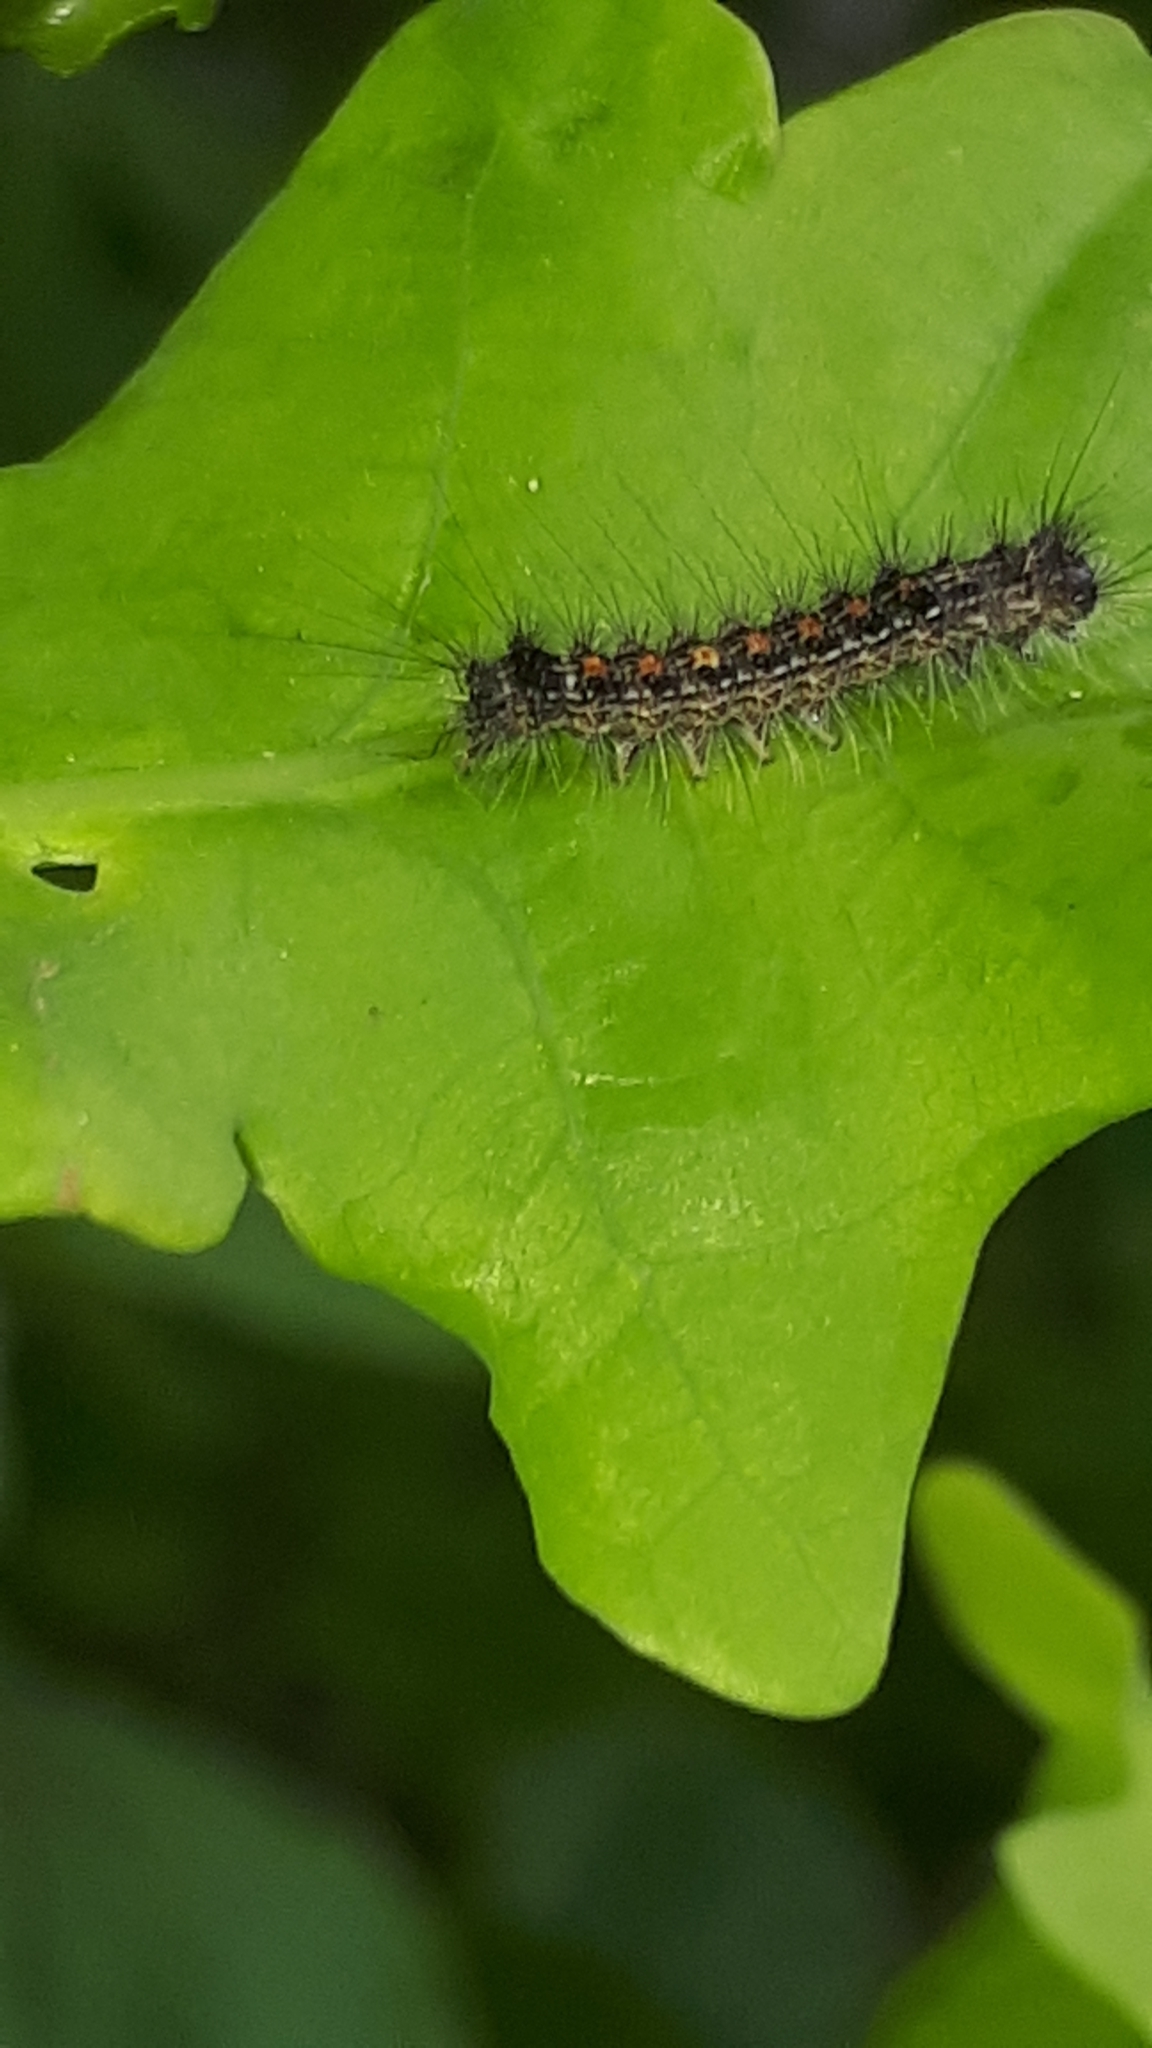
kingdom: Animalia
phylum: Arthropoda
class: Insecta
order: Lepidoptera
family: Erebidae
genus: Lymantria
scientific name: Lymantria dispar
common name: Gypsy moth
